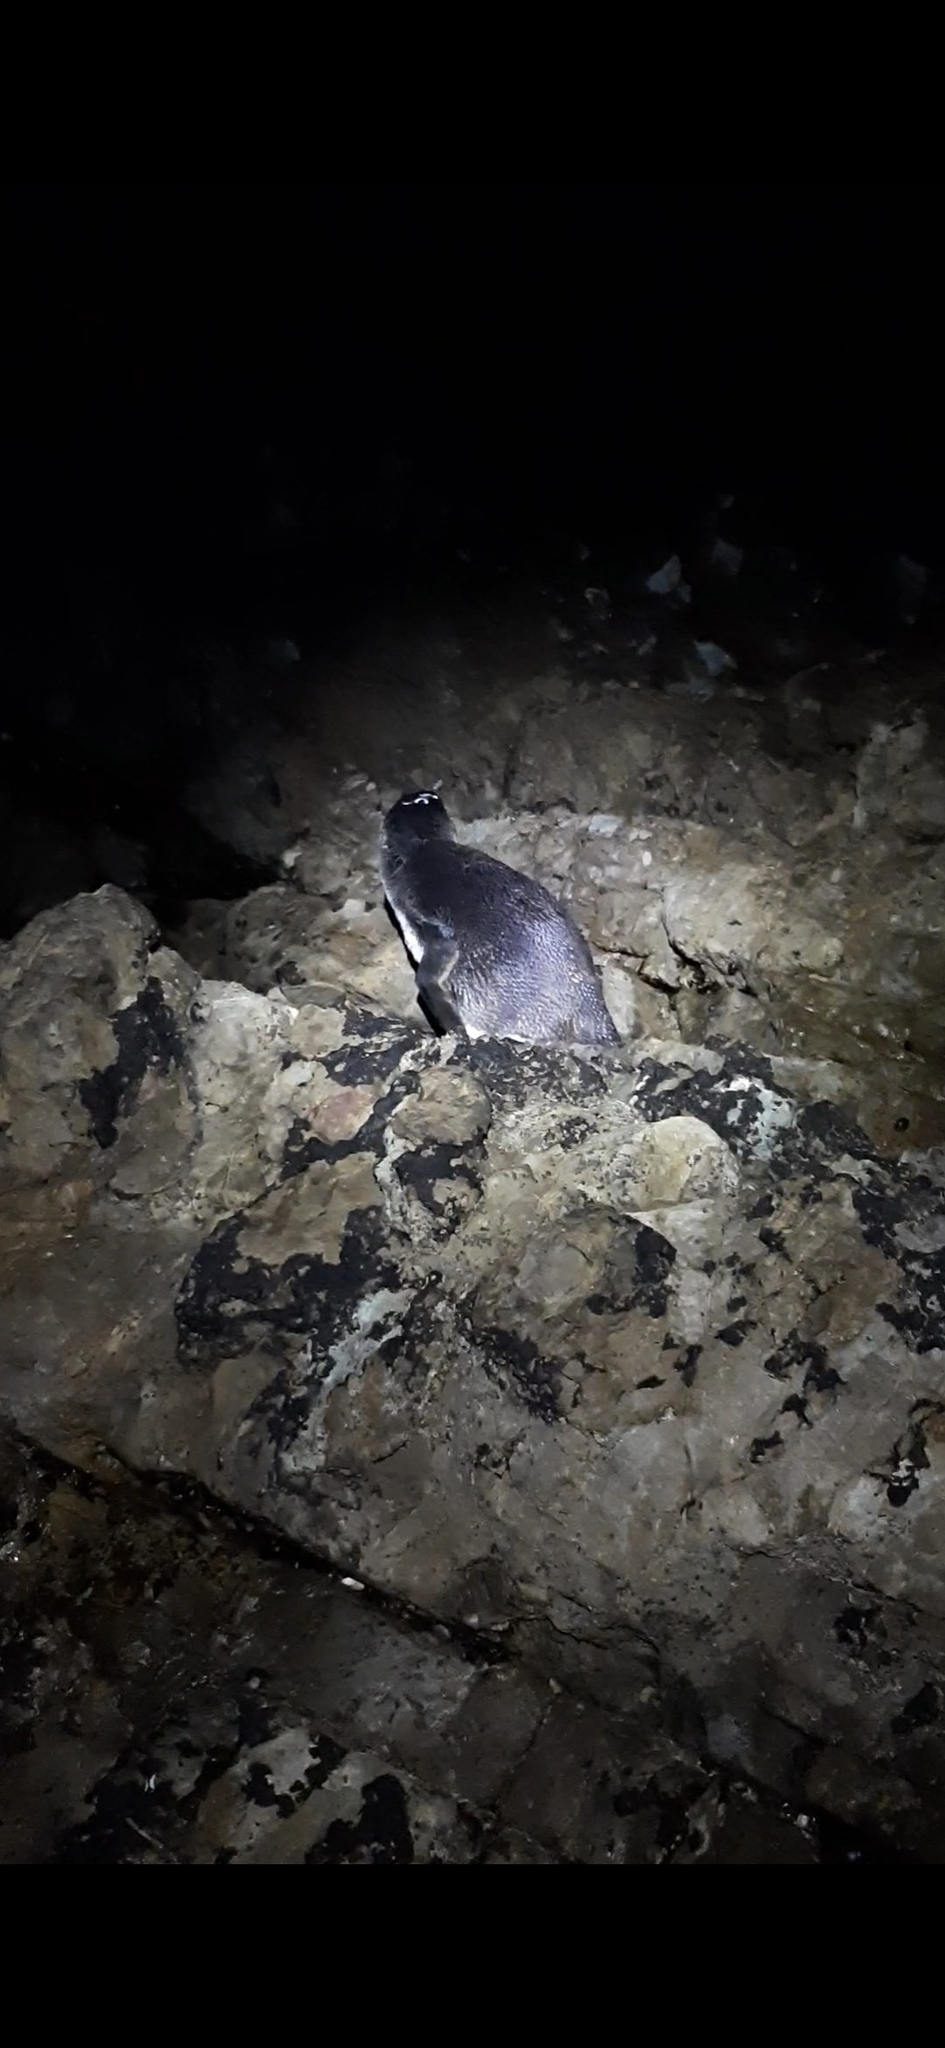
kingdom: Animalia
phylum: Chordata
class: Aves
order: Sphenisciformes
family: Spheniscidae
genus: Eudyptula
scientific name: Eudyptula minor
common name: Little penguin
